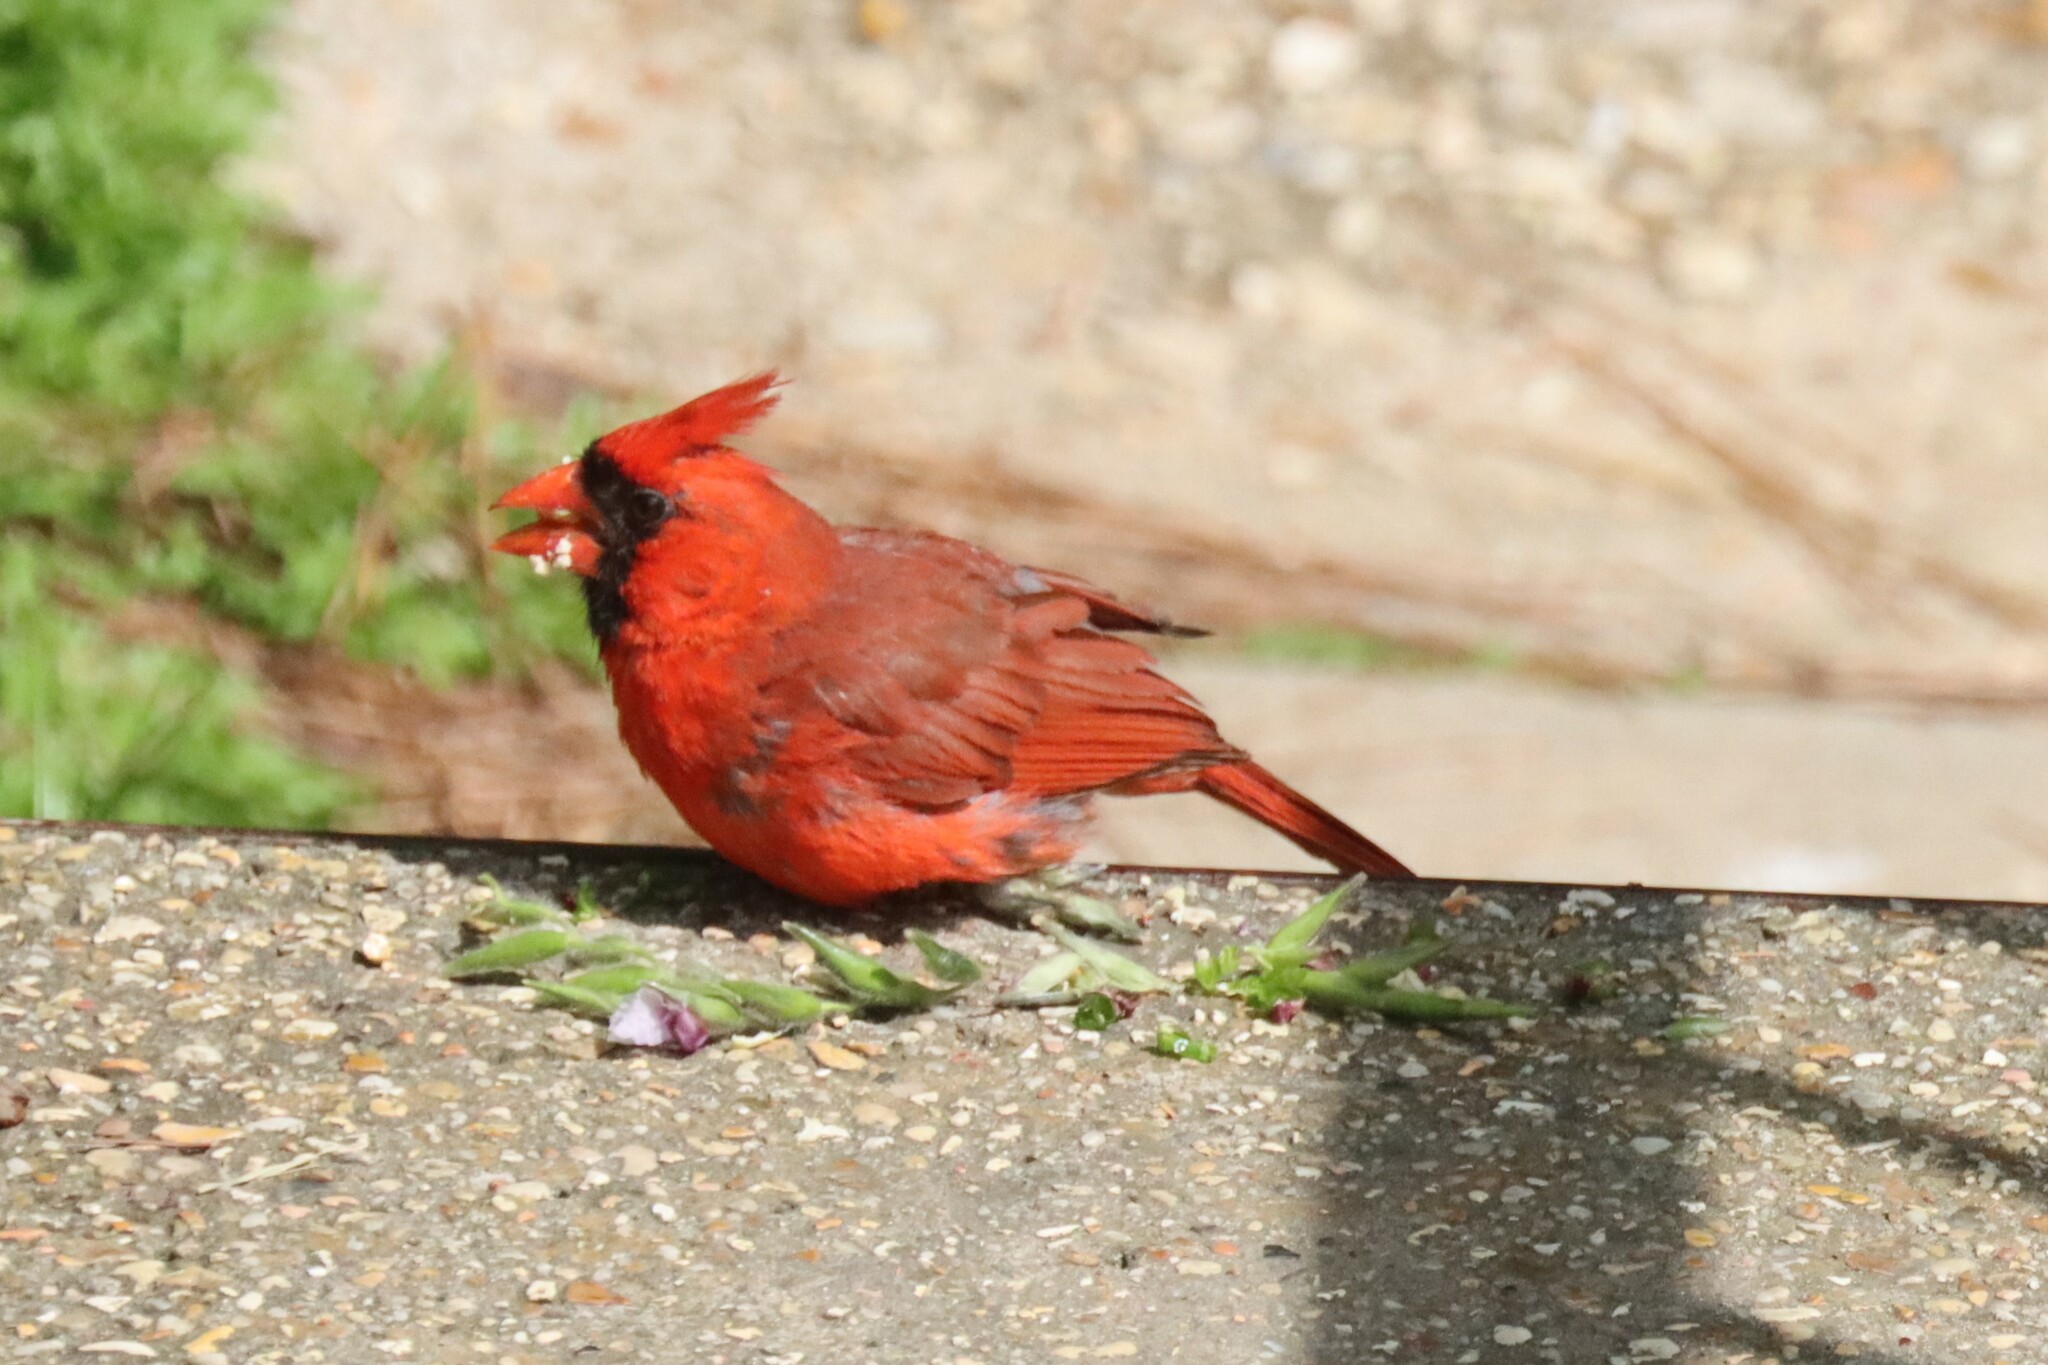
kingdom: Animalia
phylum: Chordata
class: Aves
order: Passeriformes
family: Cardinalidae
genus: Cardinalis
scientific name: Cardinalis cardinalis
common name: Northern cardinal
